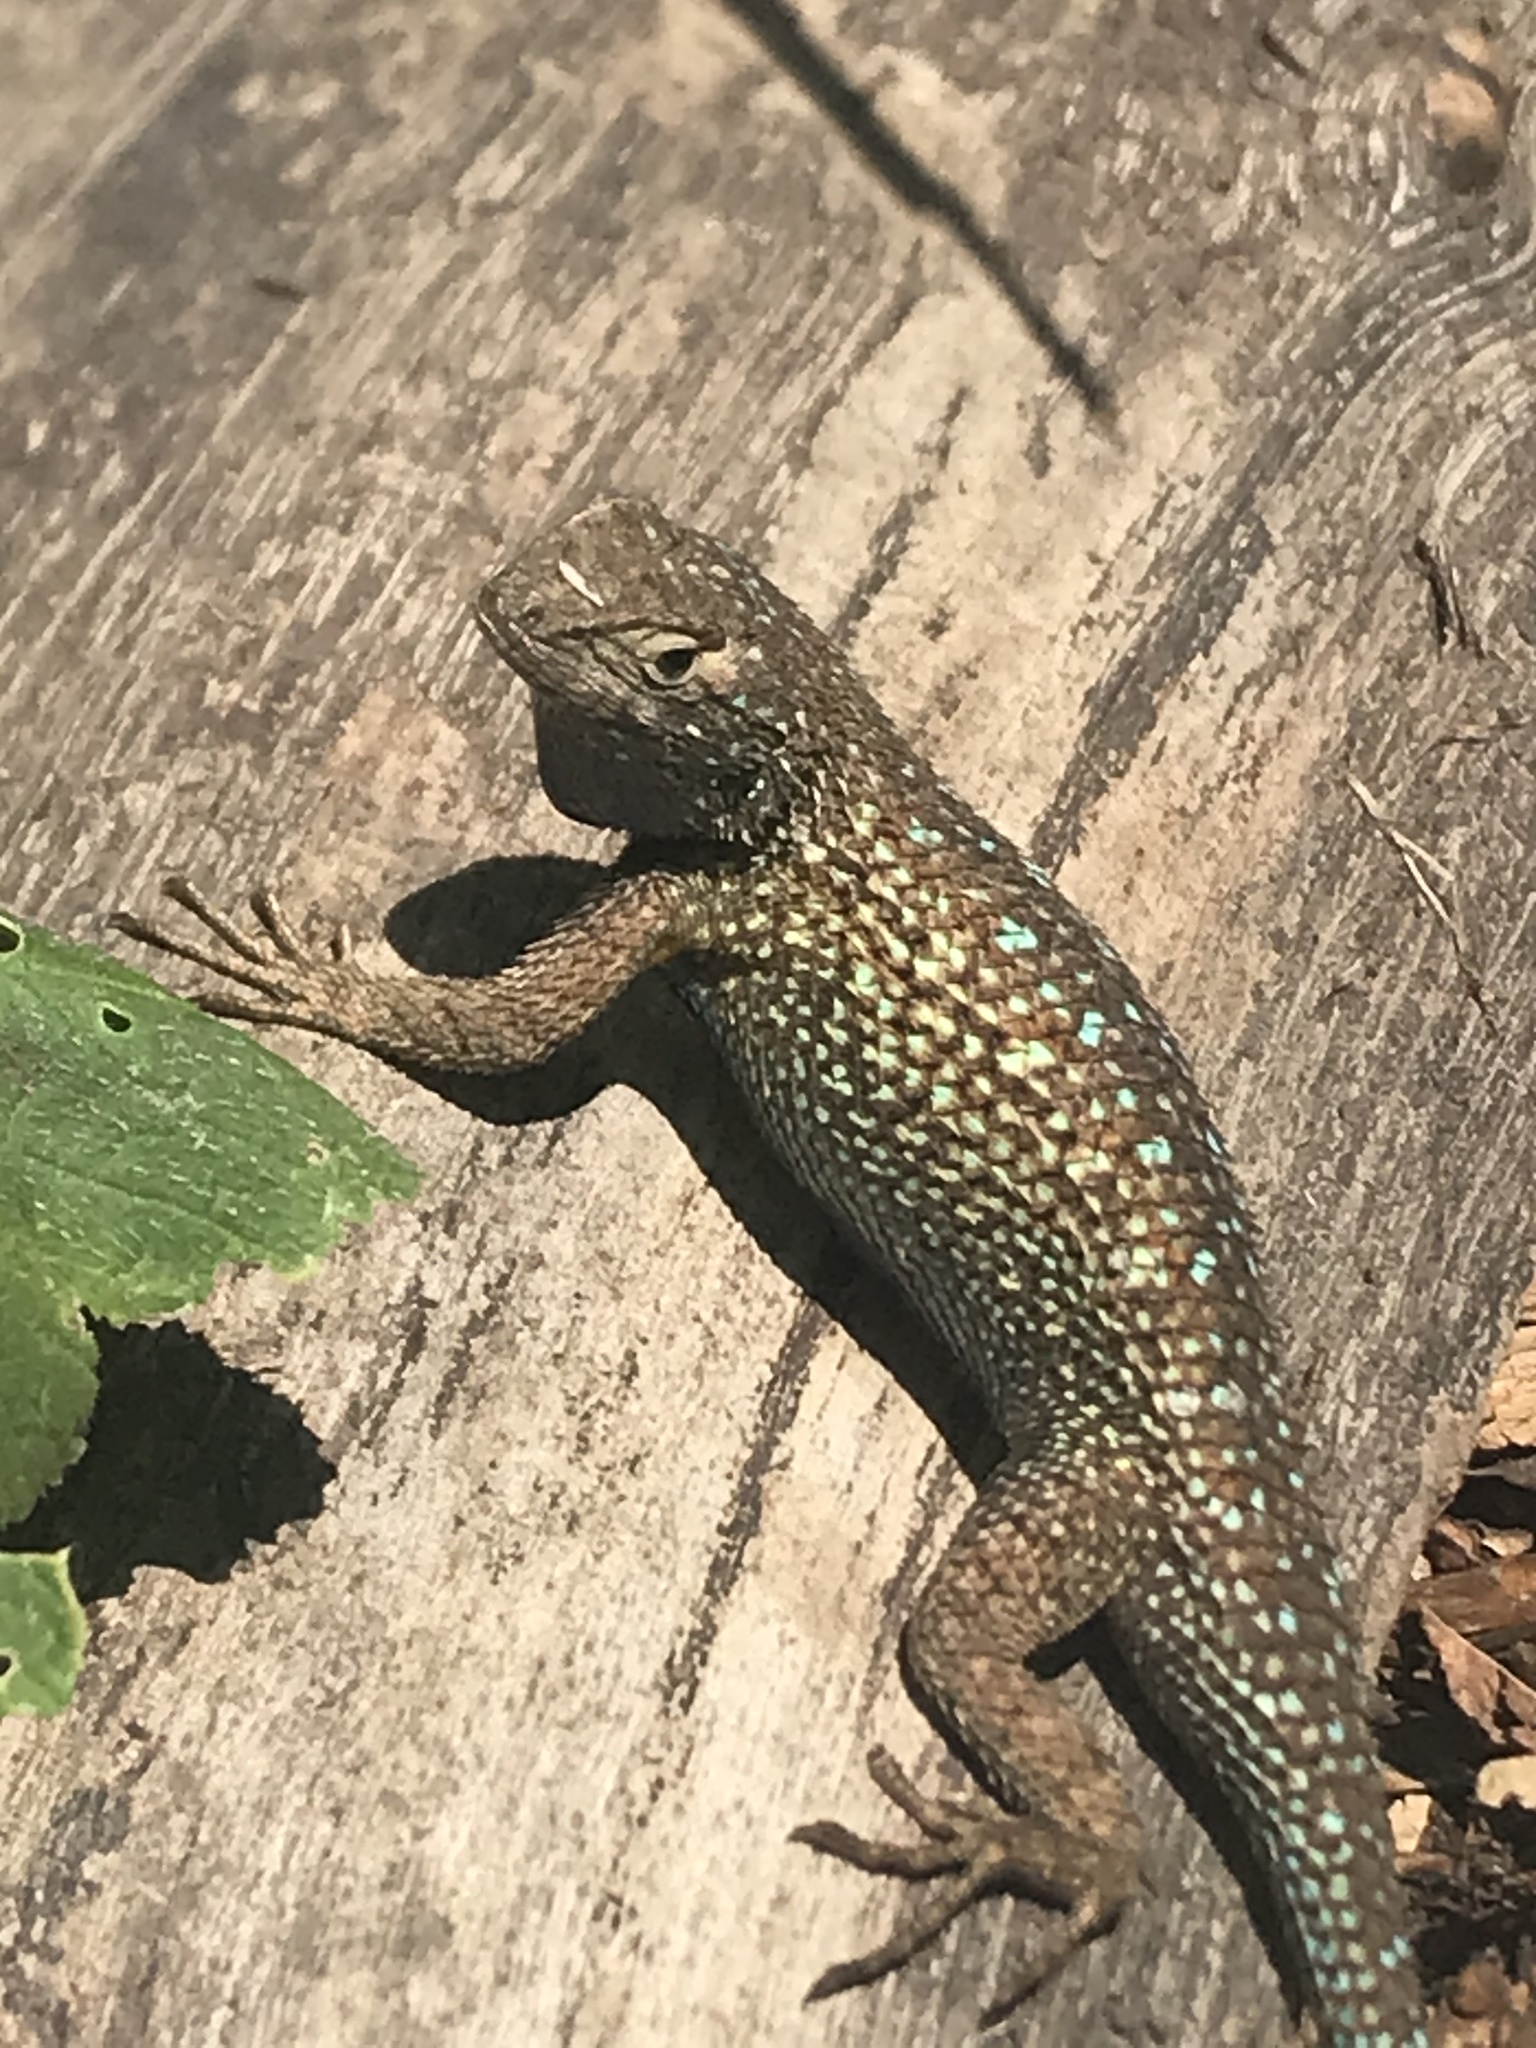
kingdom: Animalia
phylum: Chordata
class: Squamata
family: Phrynosomatidae
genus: Sceloporus
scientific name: Sceloporus occidentalis
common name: Western fence lizard
